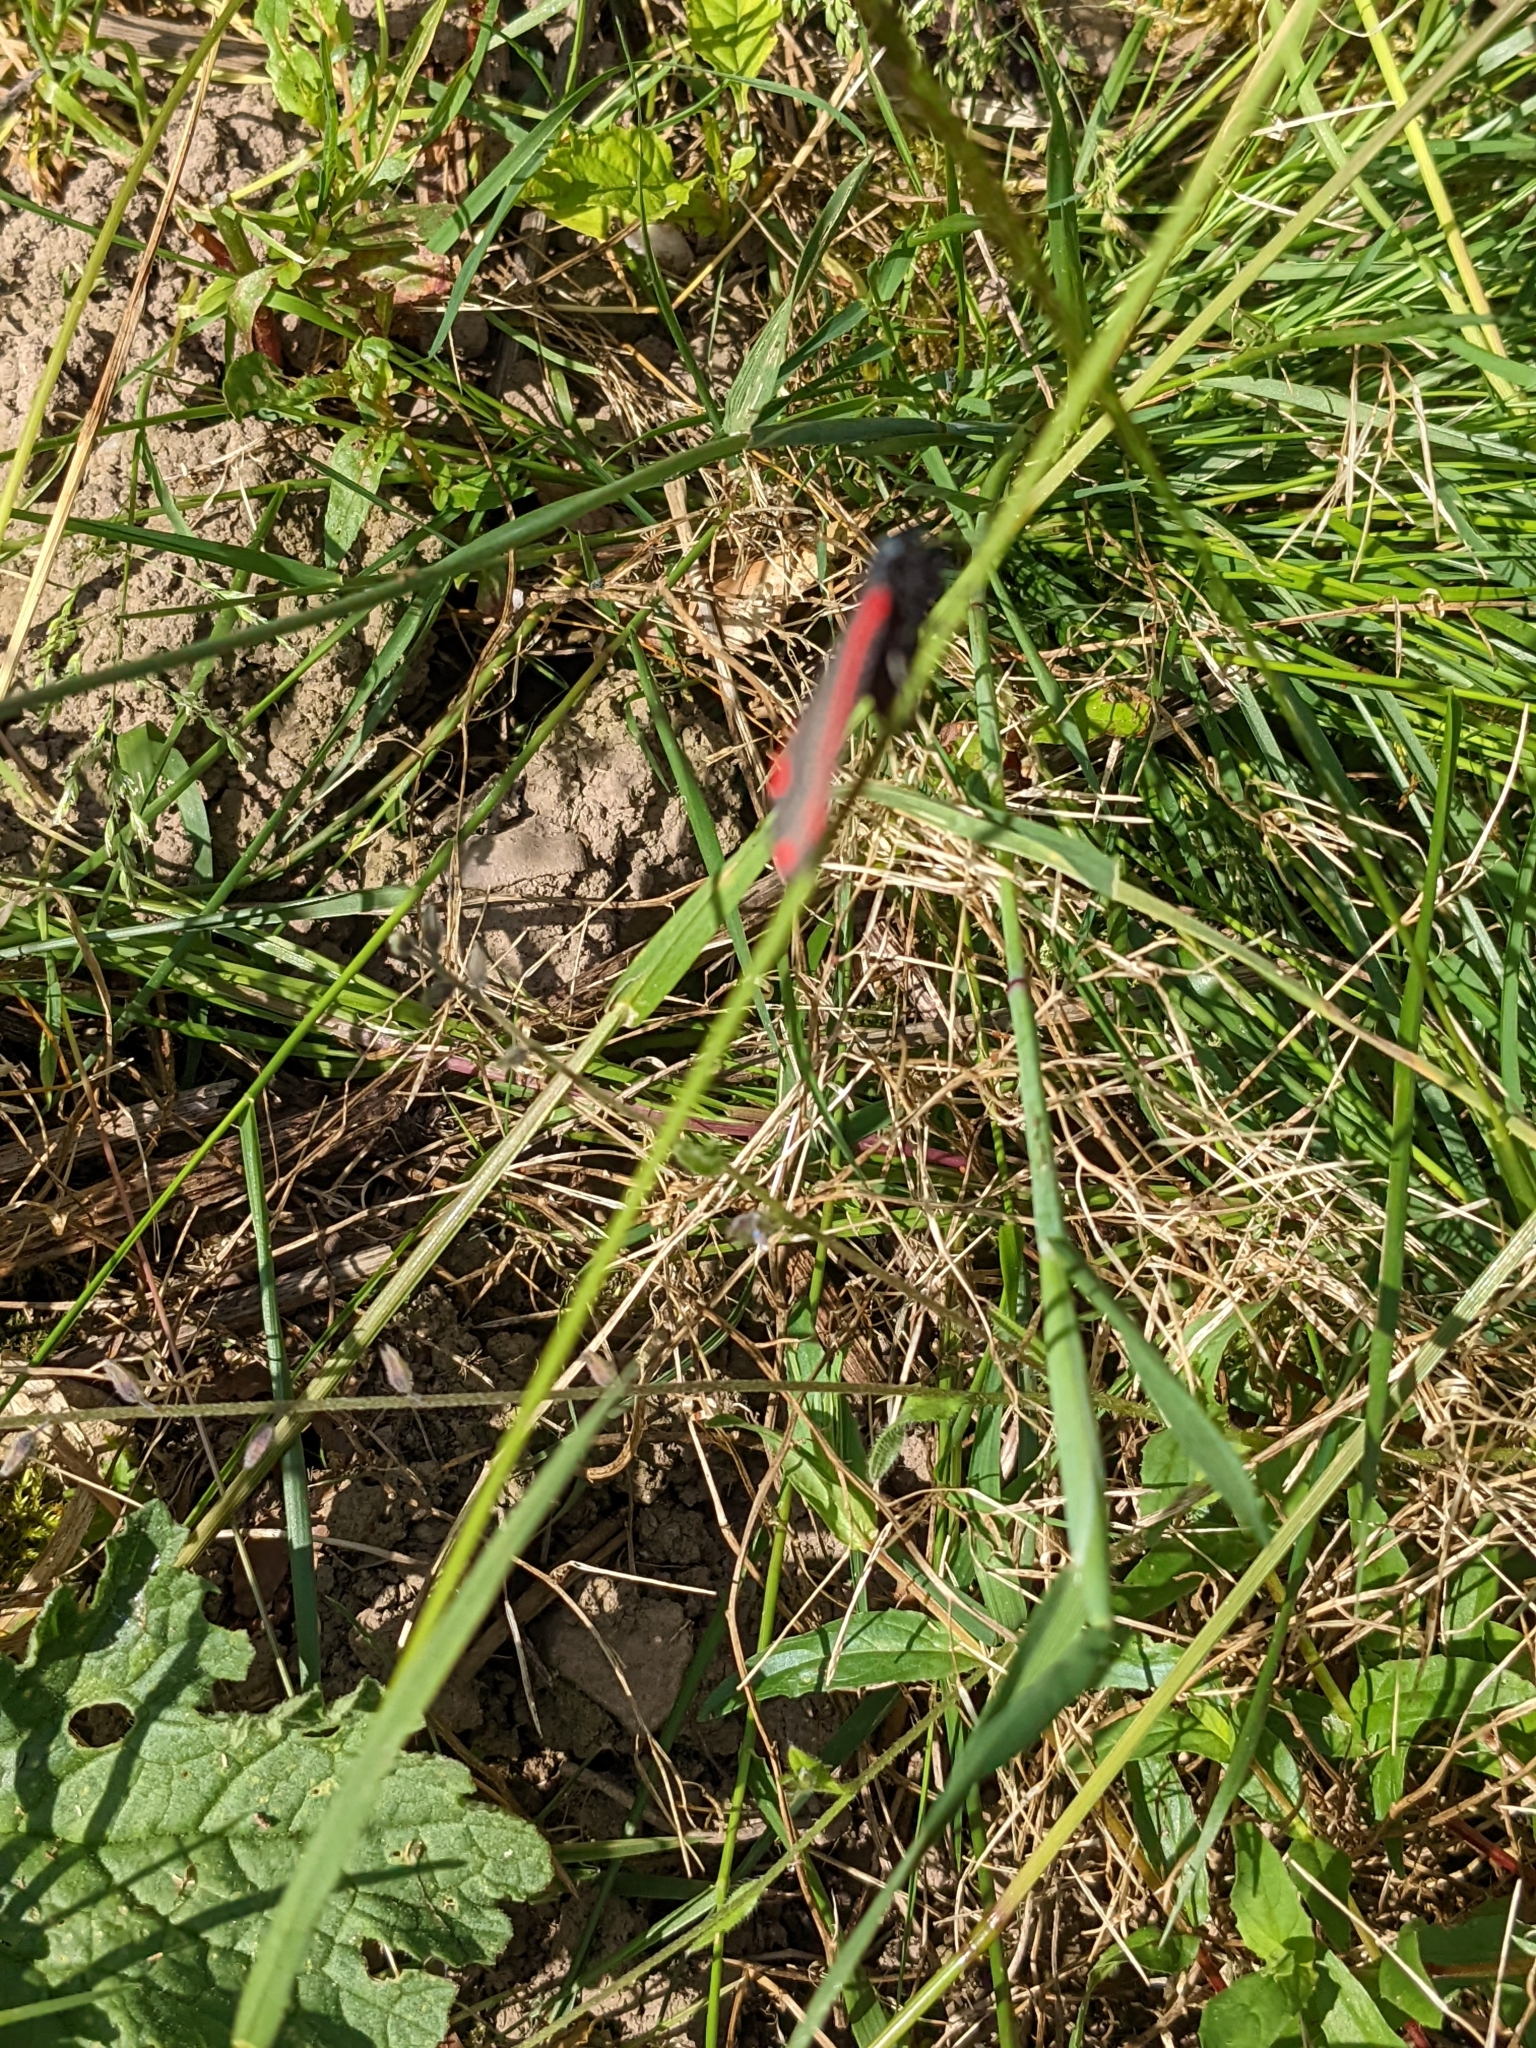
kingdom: Animalia
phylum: Arthropoda
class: Insecta
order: Lepidoptera
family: Erebidae
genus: Tyria
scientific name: Tyria jacobaeae
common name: Cinnabar
